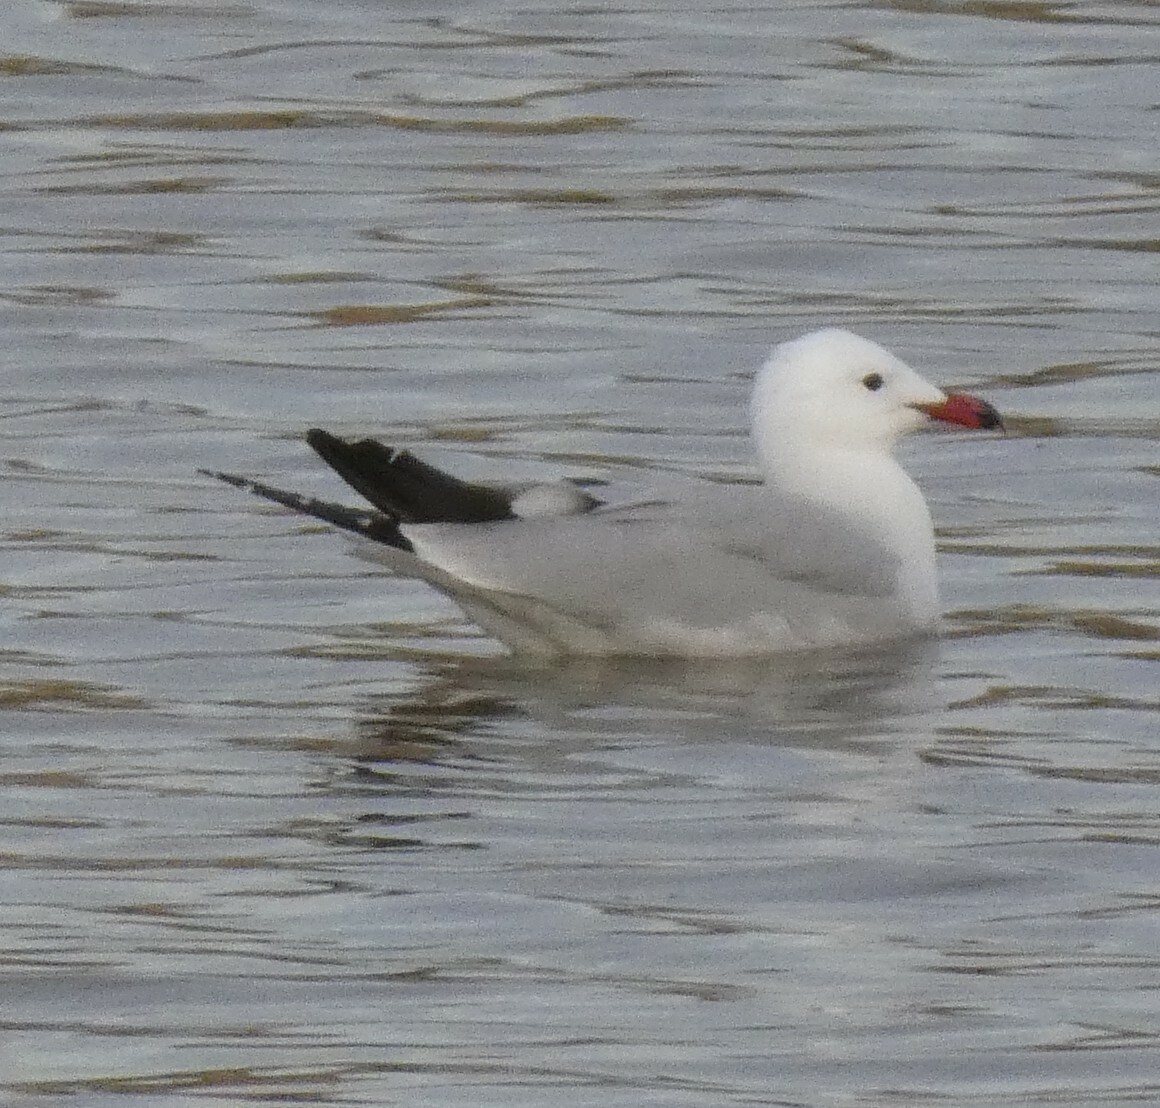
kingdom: Animalia
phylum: Chordata
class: Aves
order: Charadriiformes
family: Laridae
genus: Ichthyaetus
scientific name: Ichthyaetus audouinii
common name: Audouin's gull
